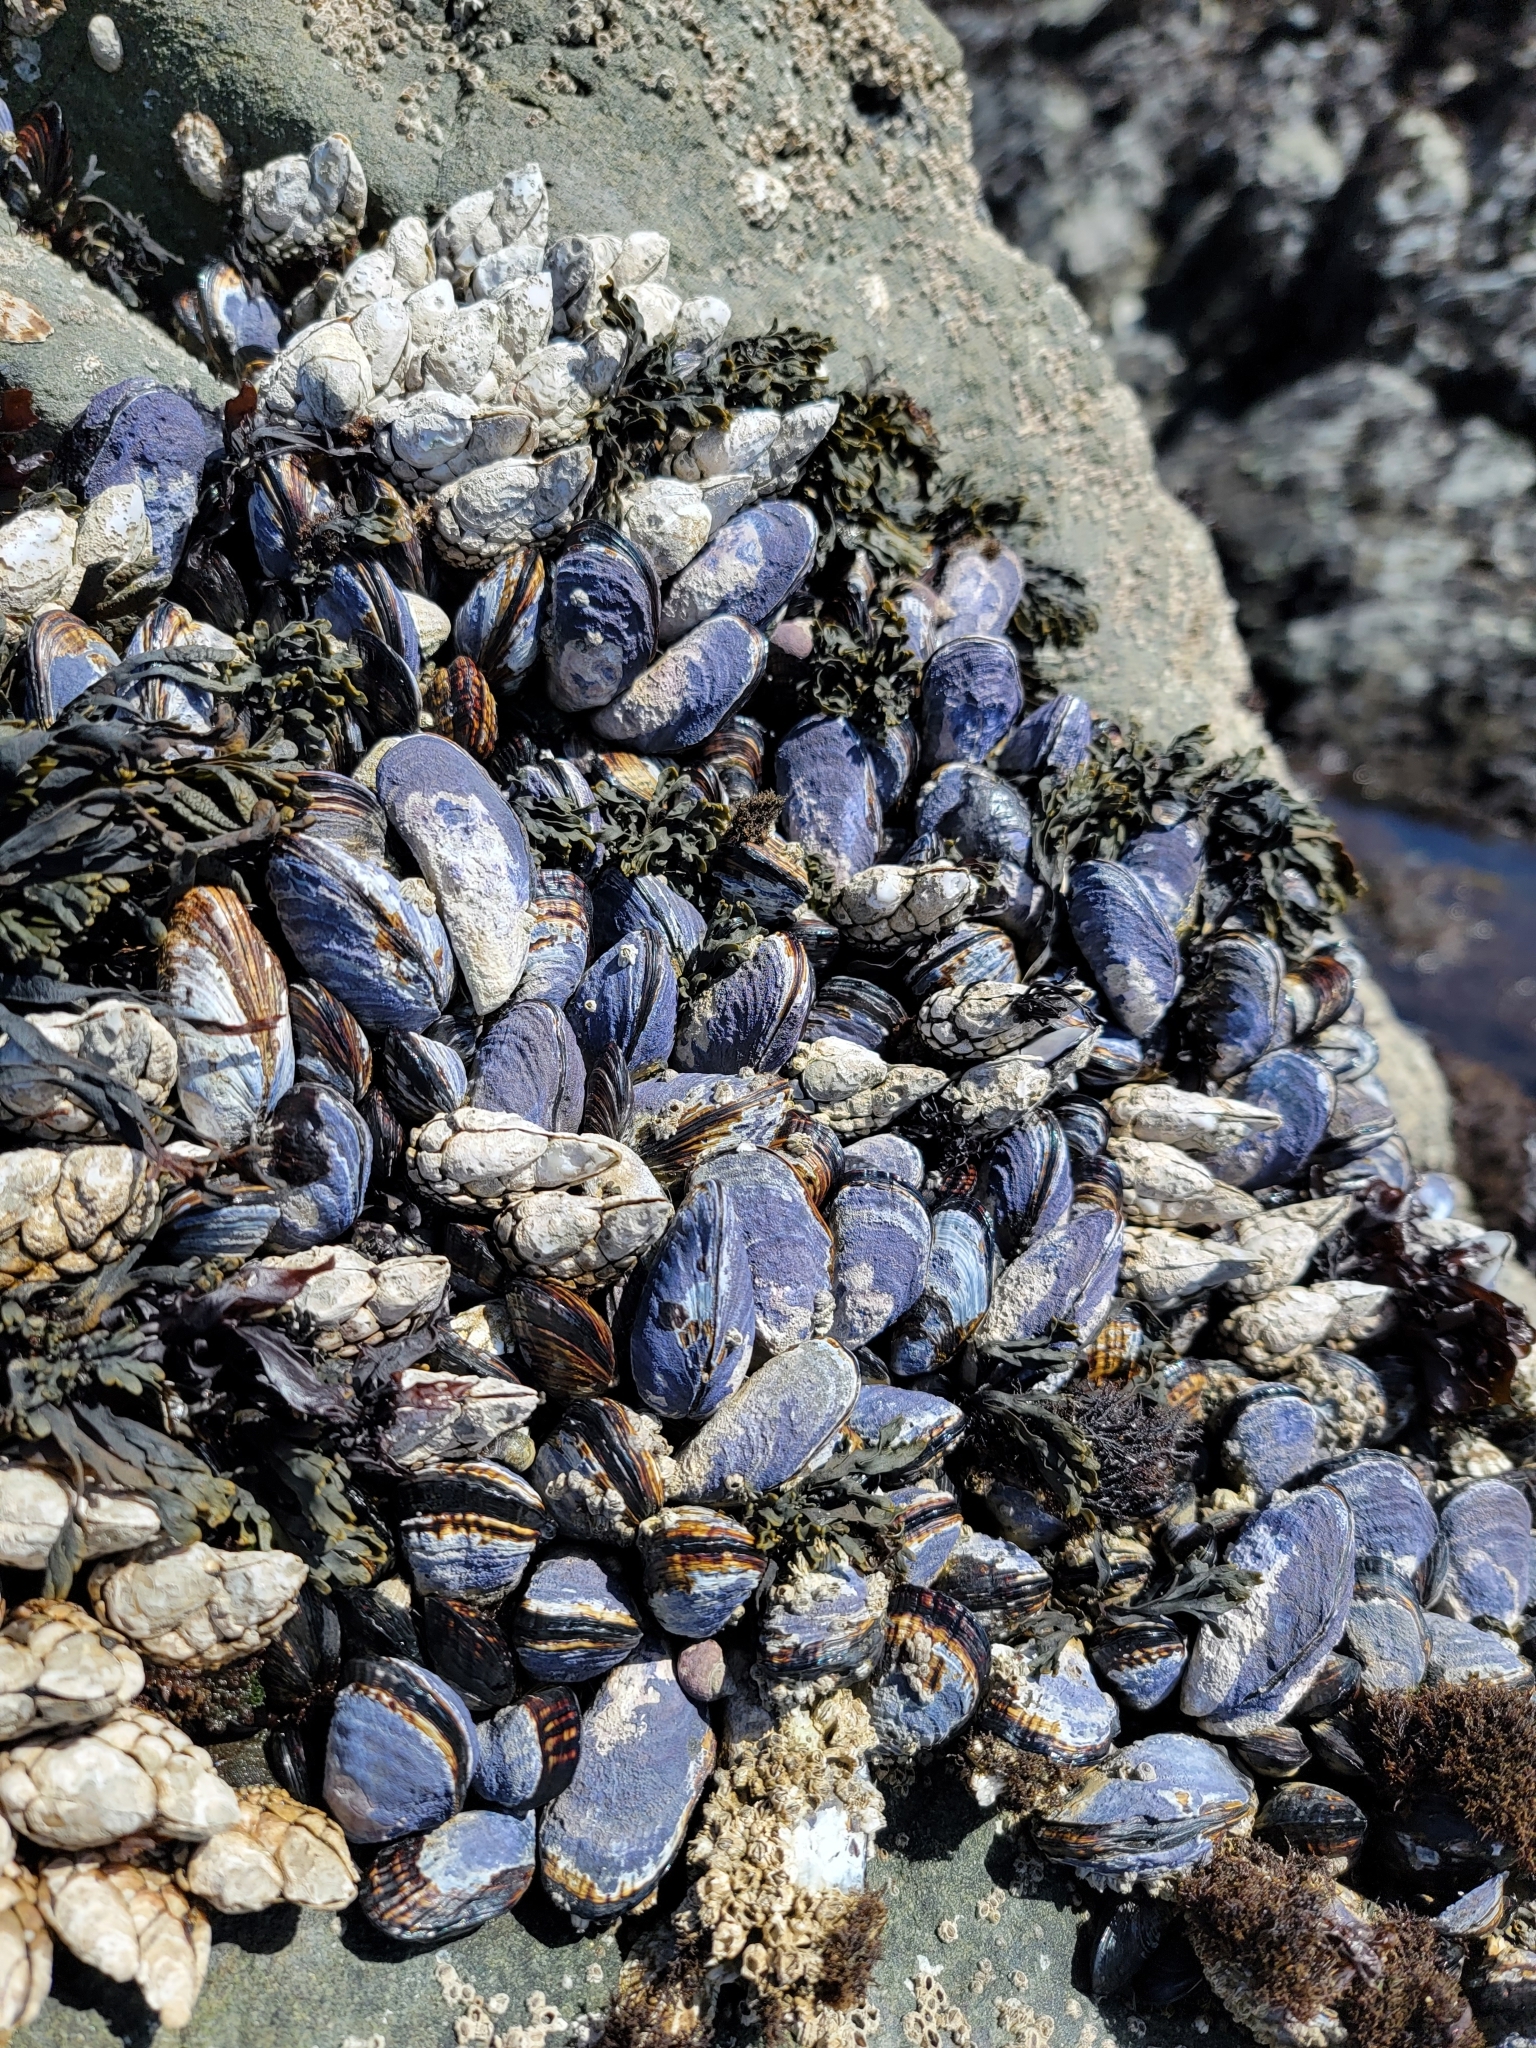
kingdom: Animalia
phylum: Mollusca
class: Bivalvia
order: Mytilida
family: Mytilidae
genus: Mytilus
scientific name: Mytilus californianus
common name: California mussel
